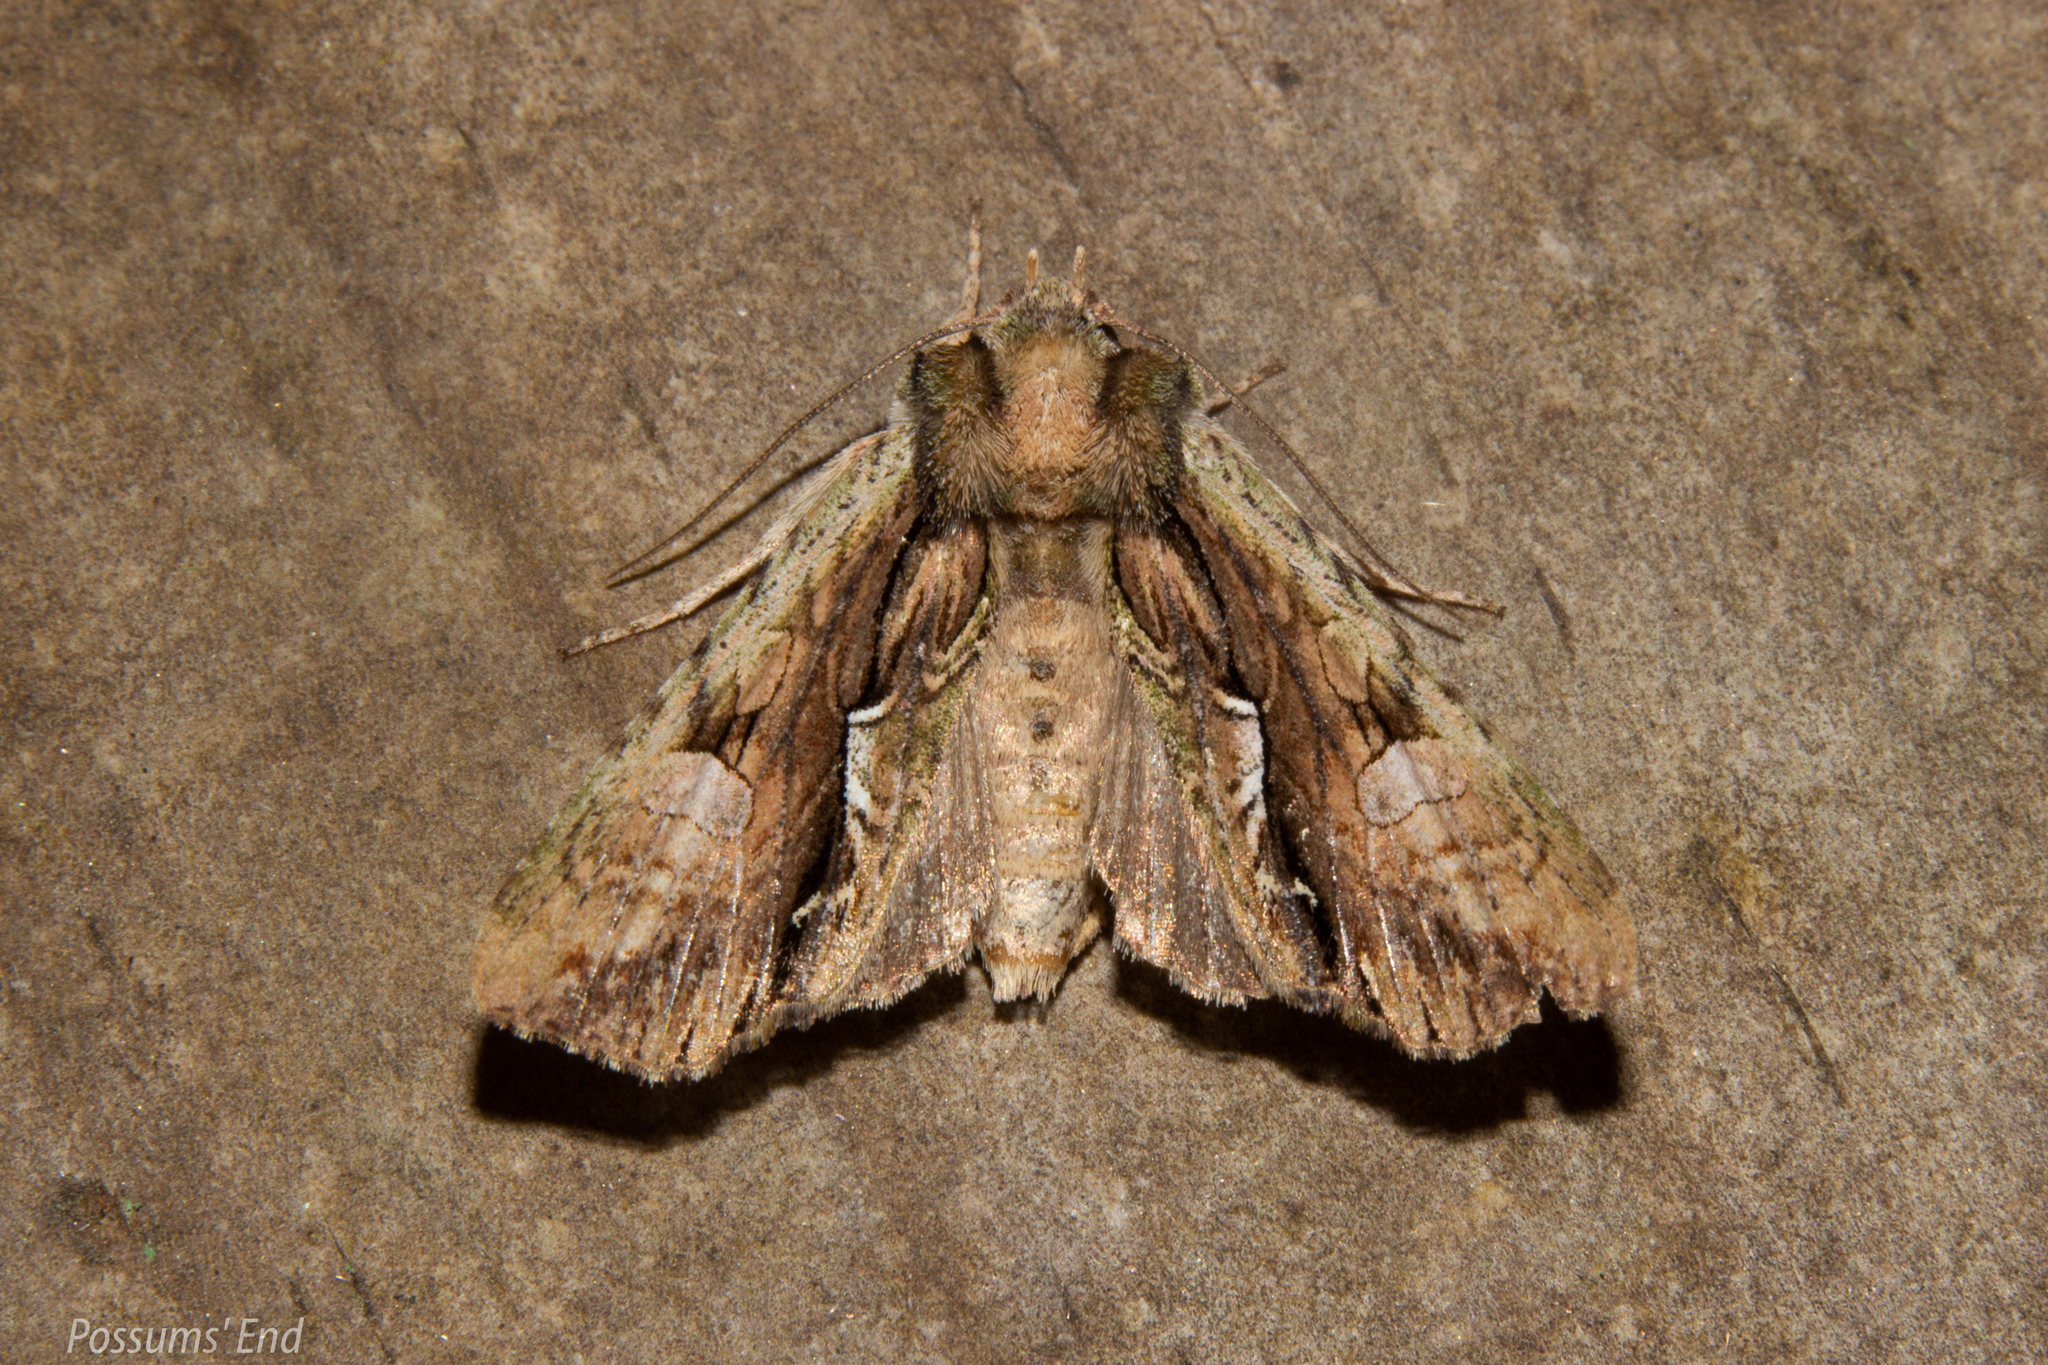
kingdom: Animalia
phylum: Arthropoda
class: Insecta
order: Lepidoptera
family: Noctuidae
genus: Meterana
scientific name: Meterana decorata
